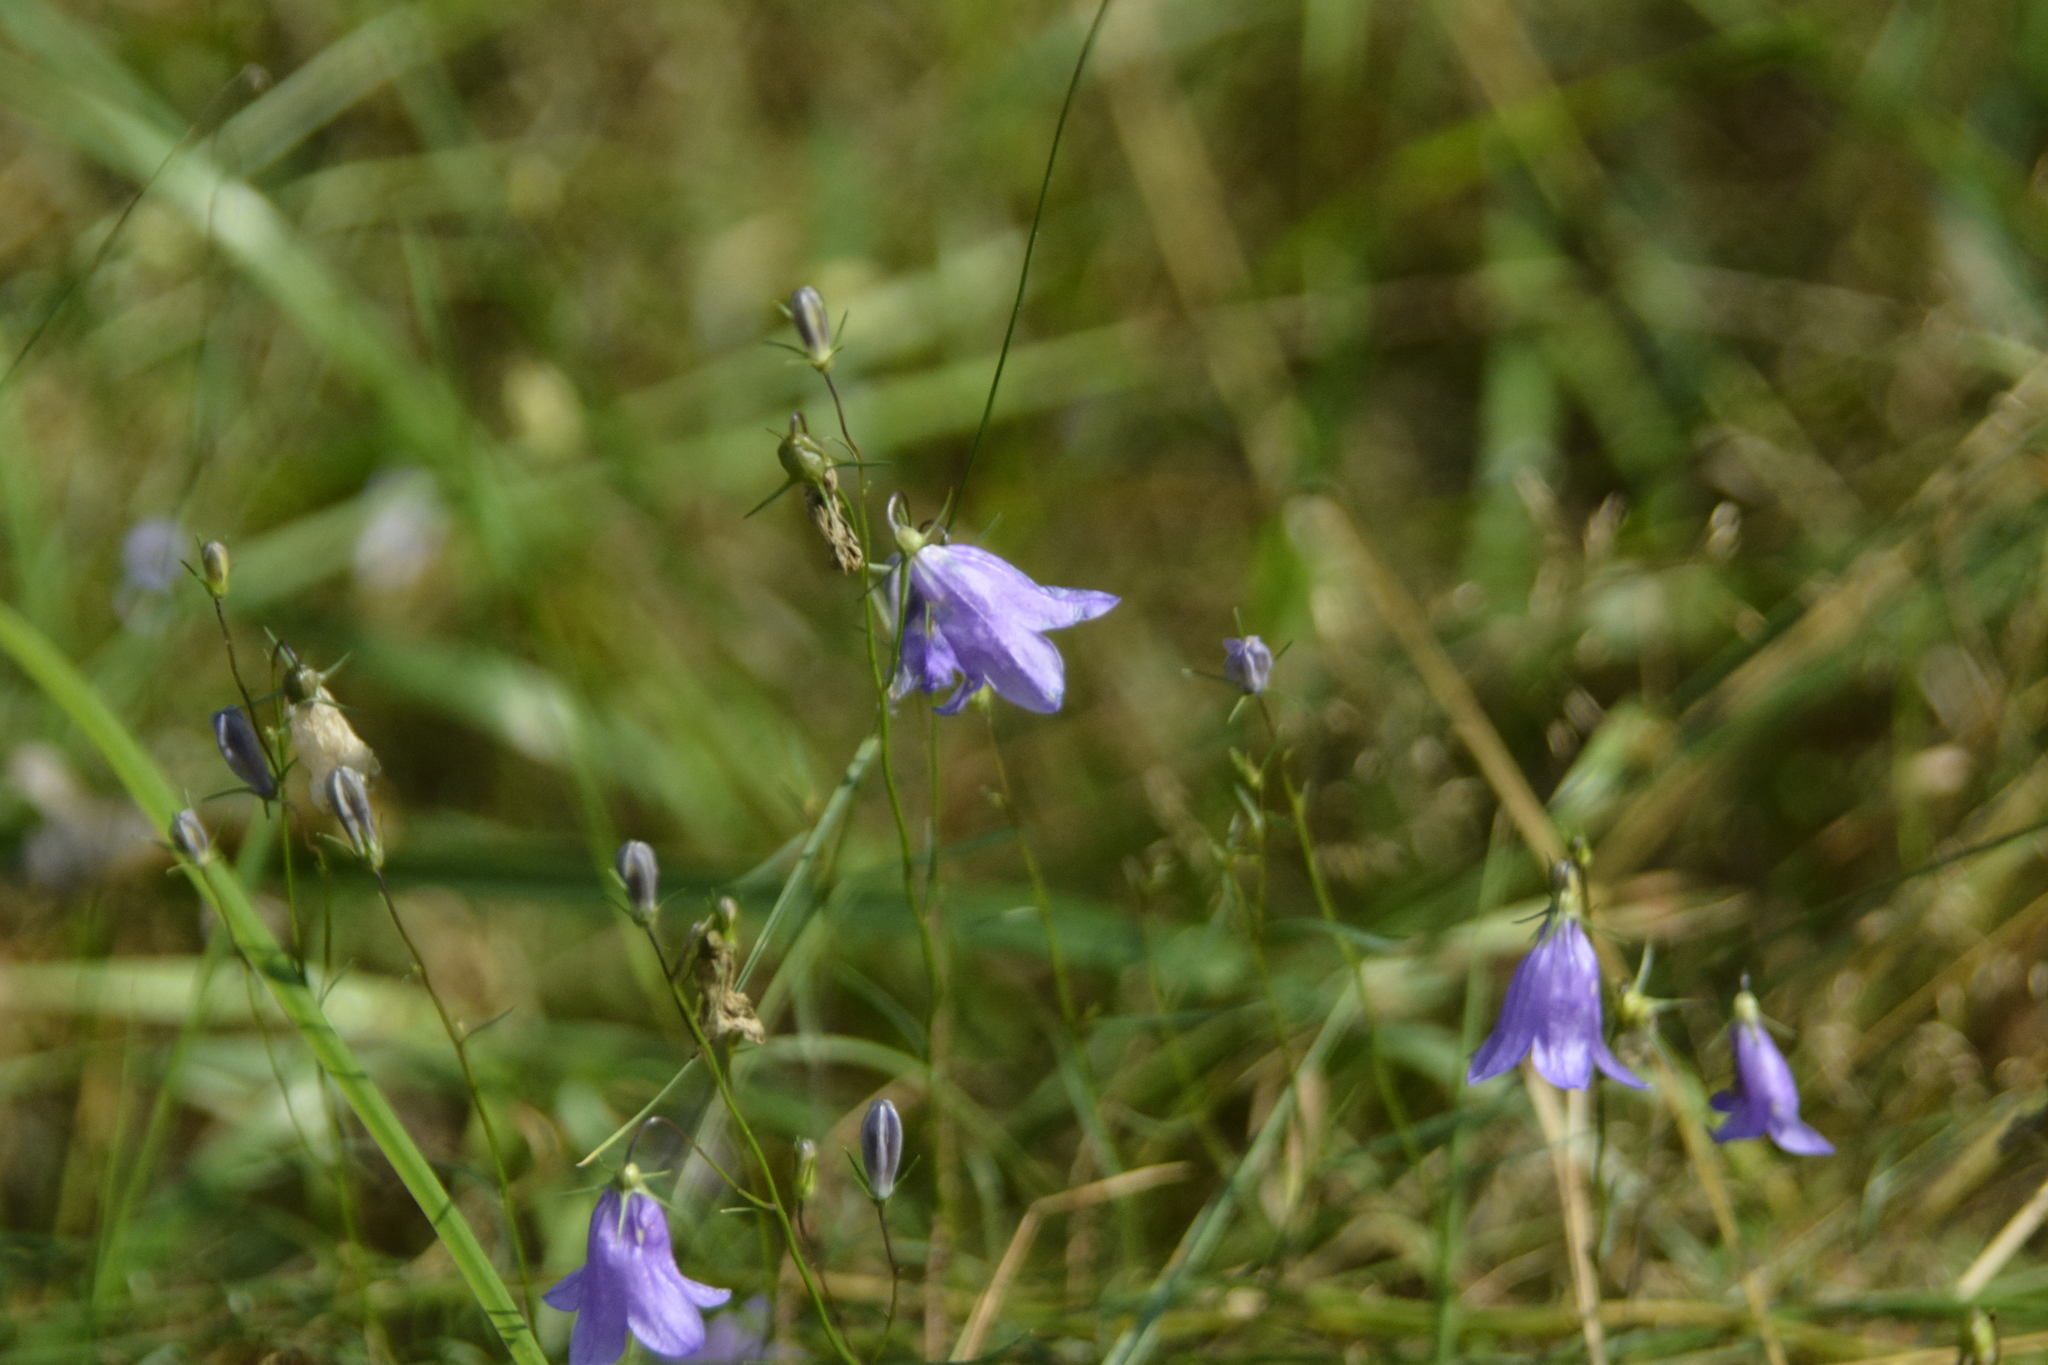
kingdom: Plantae
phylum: Tracheophyta
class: Magnoliopsida
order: Asterales
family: Campanulaceae
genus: Campanula
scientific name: Campanula rotundifolia
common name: Harebell
